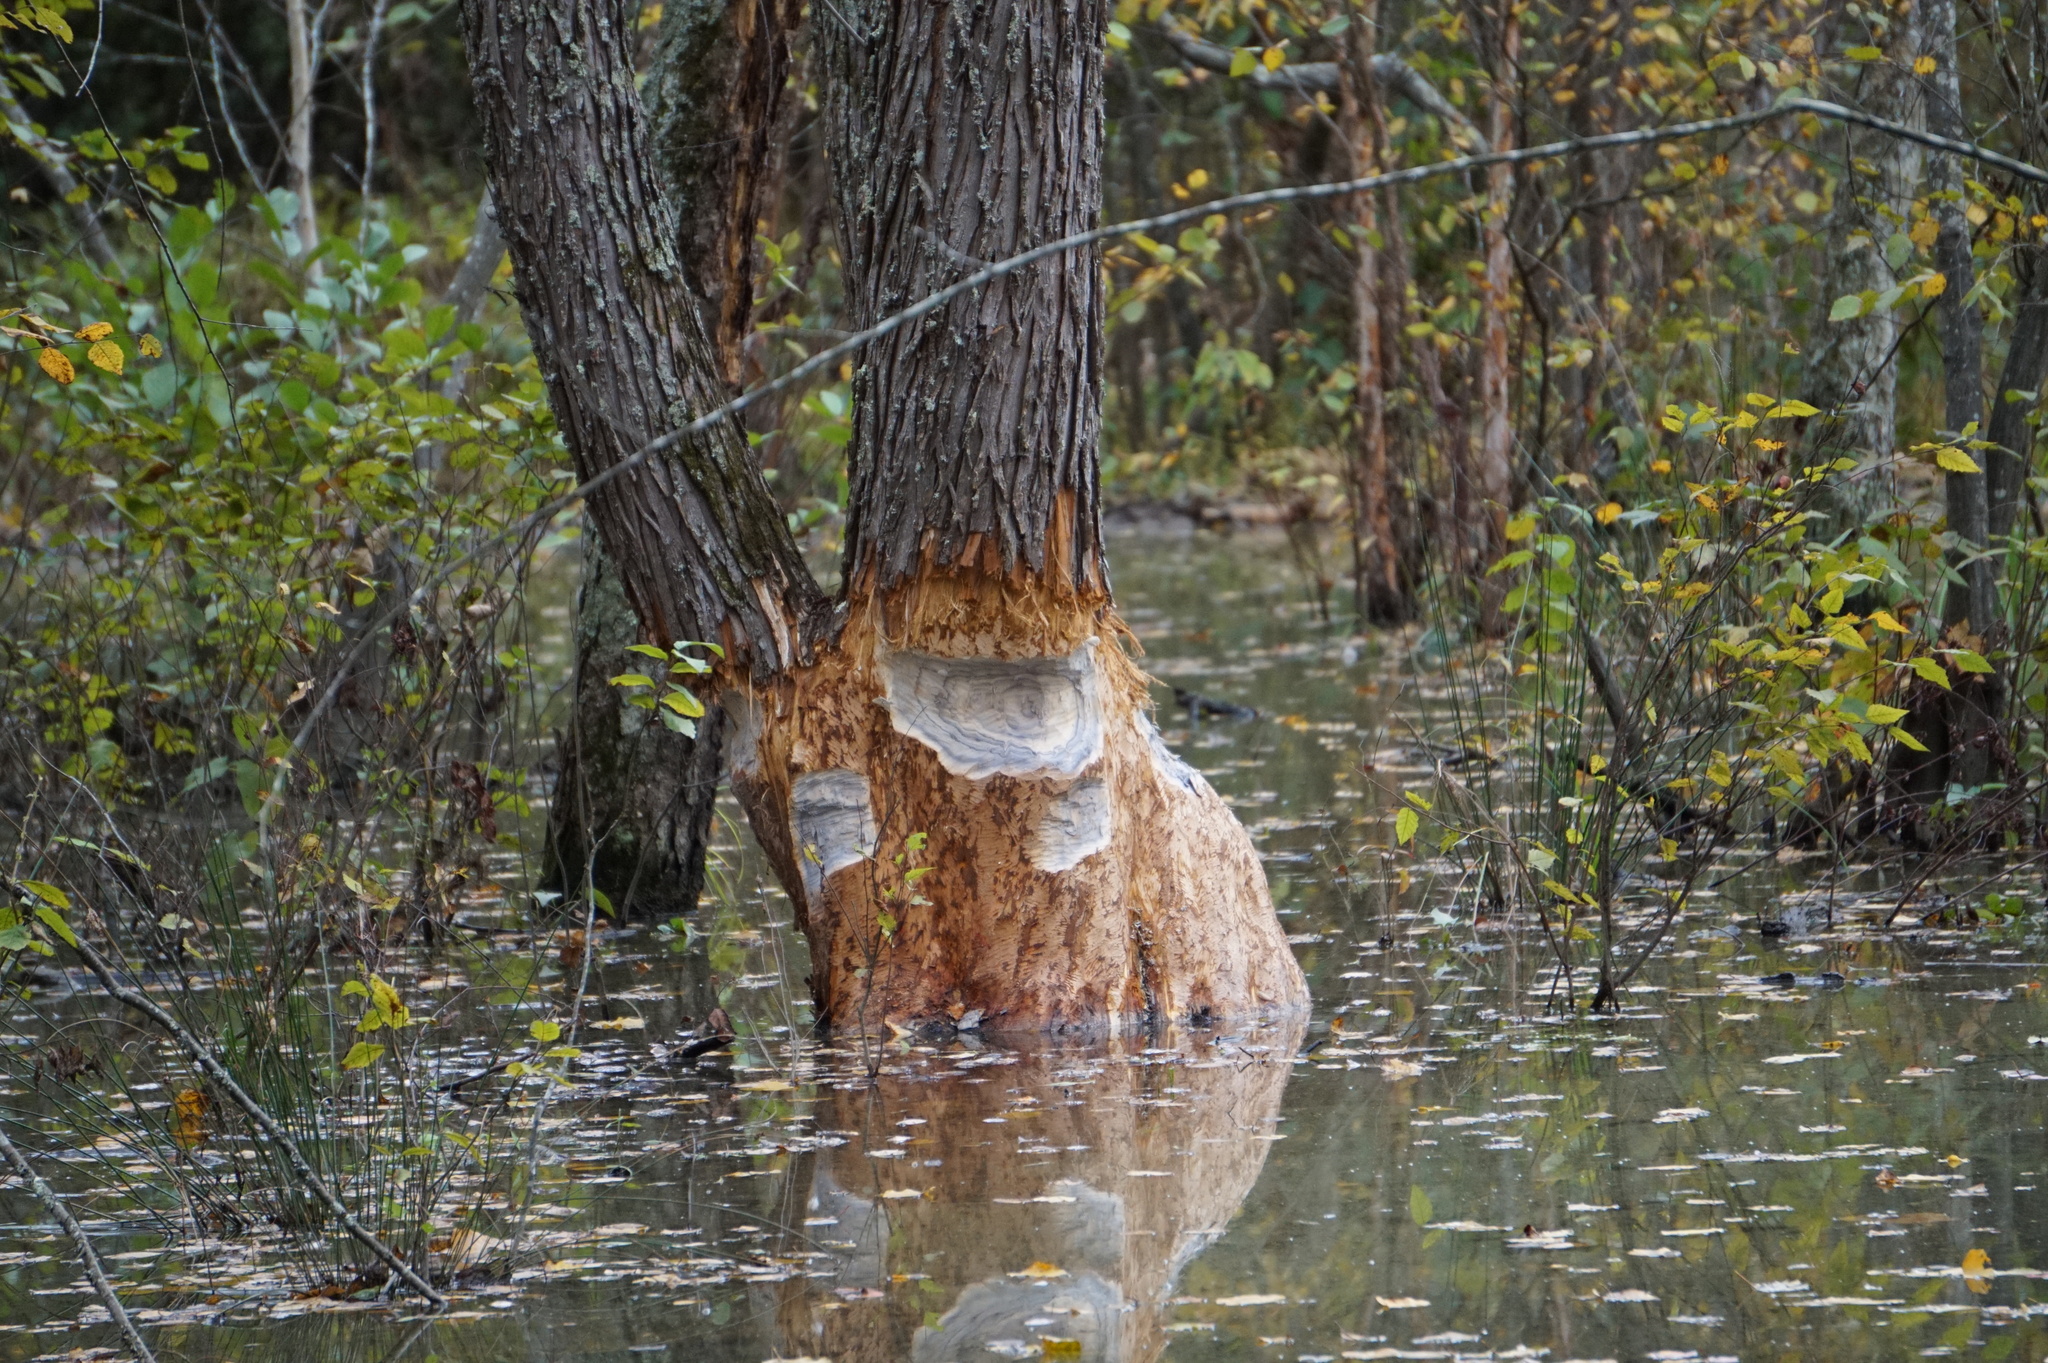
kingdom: Animalia
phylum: Chordata
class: Mammalia
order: Rodentia
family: Castoridae
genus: Castor
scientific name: Castor canadensis
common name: American beaver
